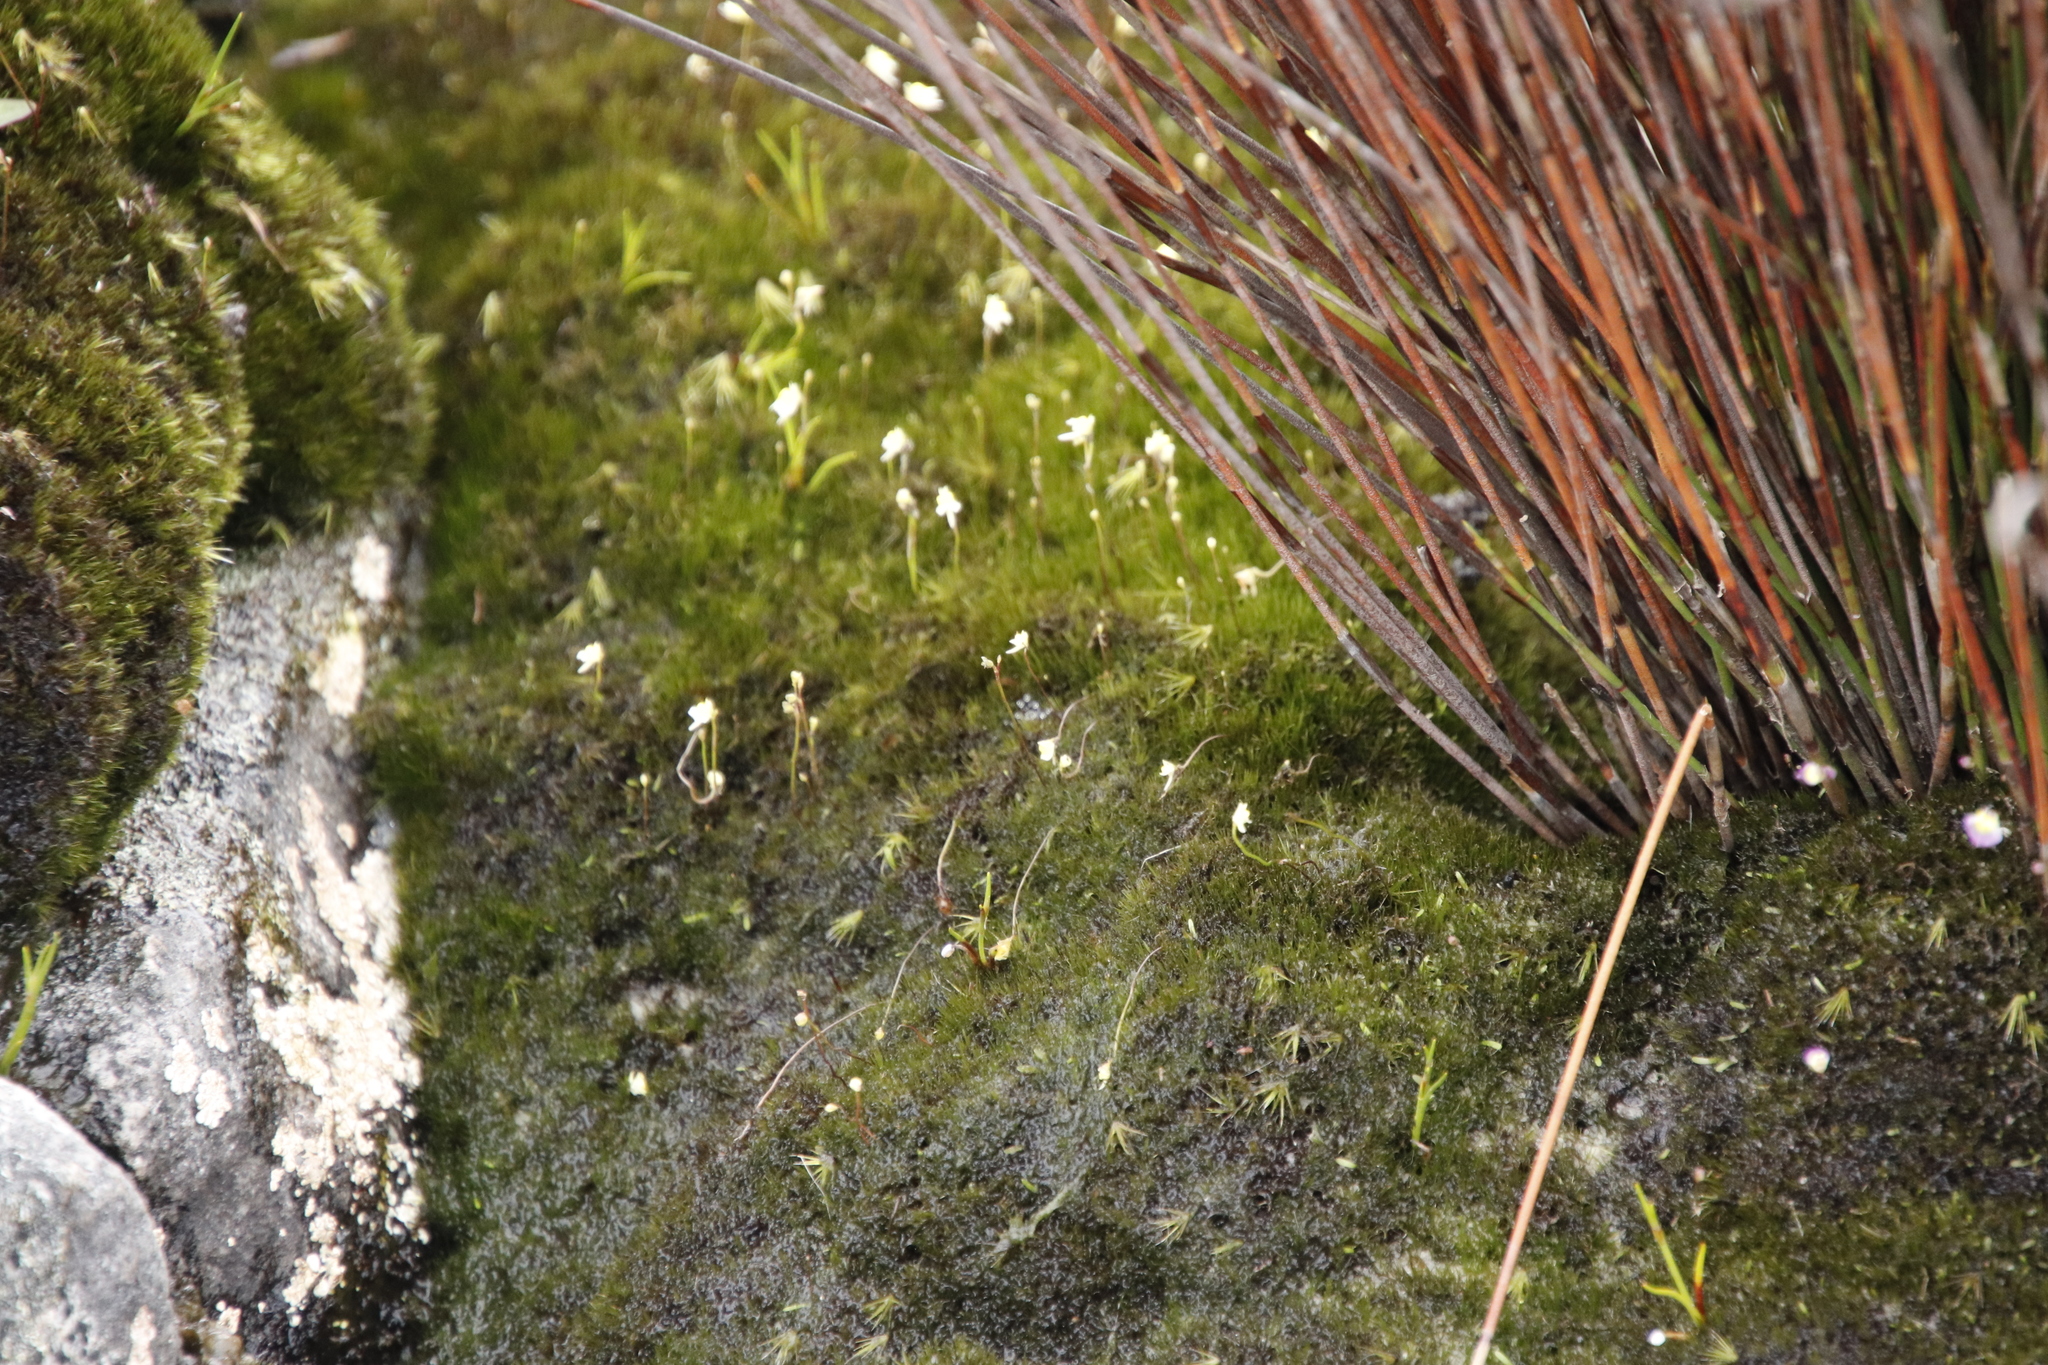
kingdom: Plantae
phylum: Tracheophyta
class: Magnoliopsida
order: Lamiales
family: Lentibulariaceae
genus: Utricularia
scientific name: Utricularia bisquamata
